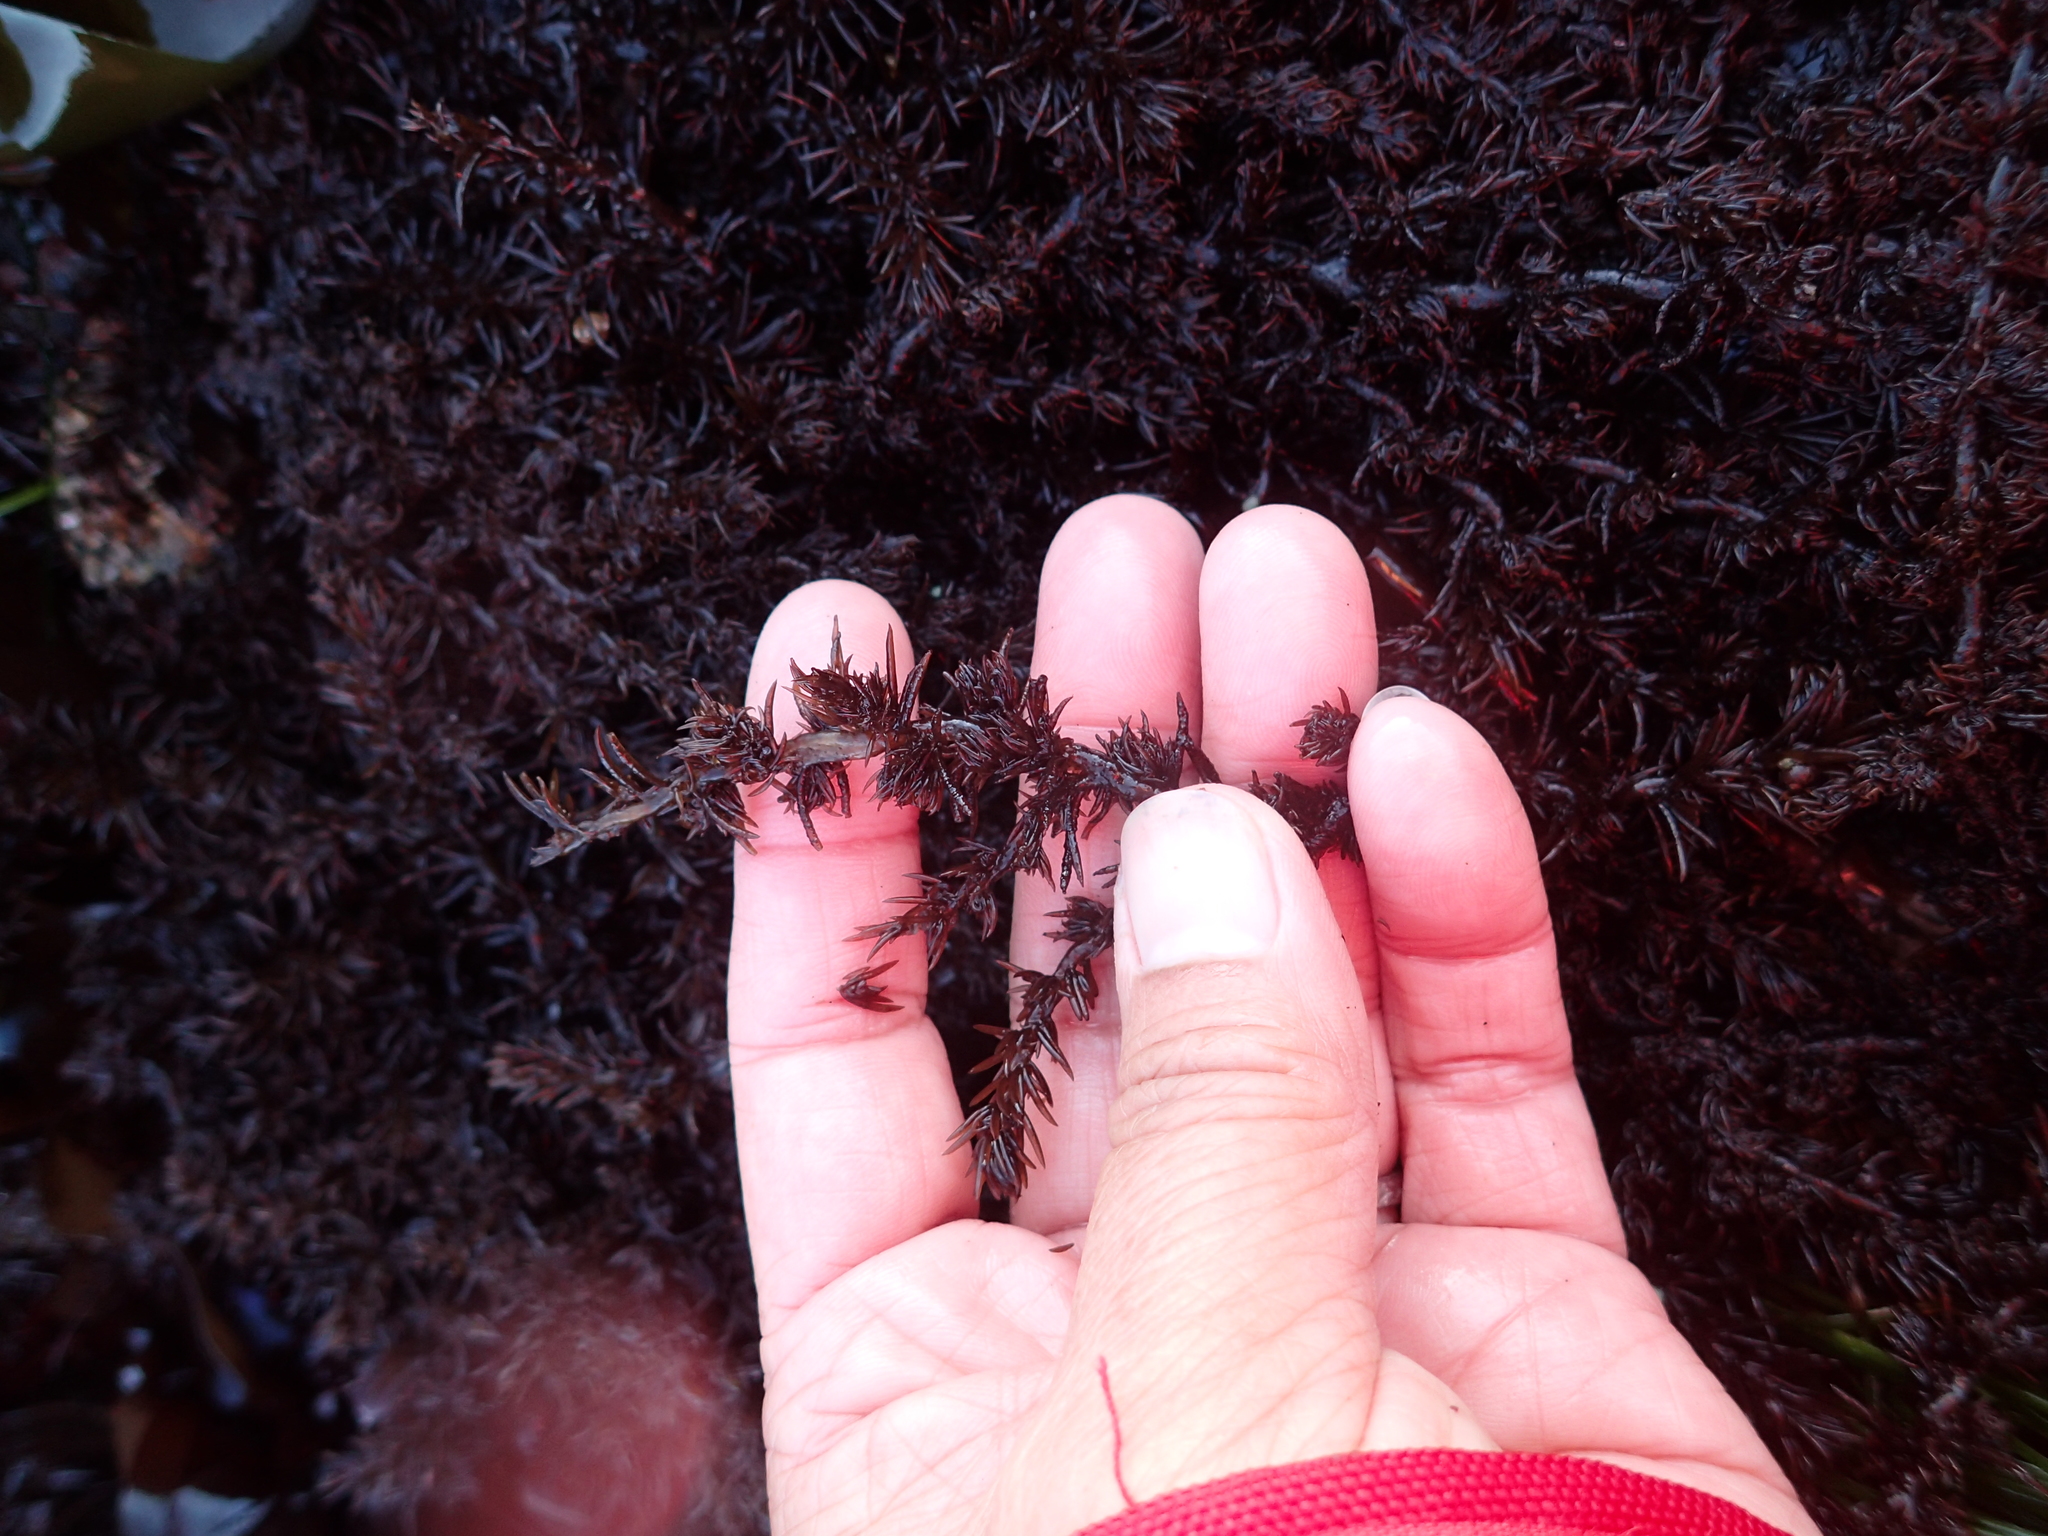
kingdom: Plantae
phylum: Rhodophyta
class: Florideophyceae
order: Ceramiales
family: Rhodomelaceae
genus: Neorhodomela
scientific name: Neorhodomela larix
